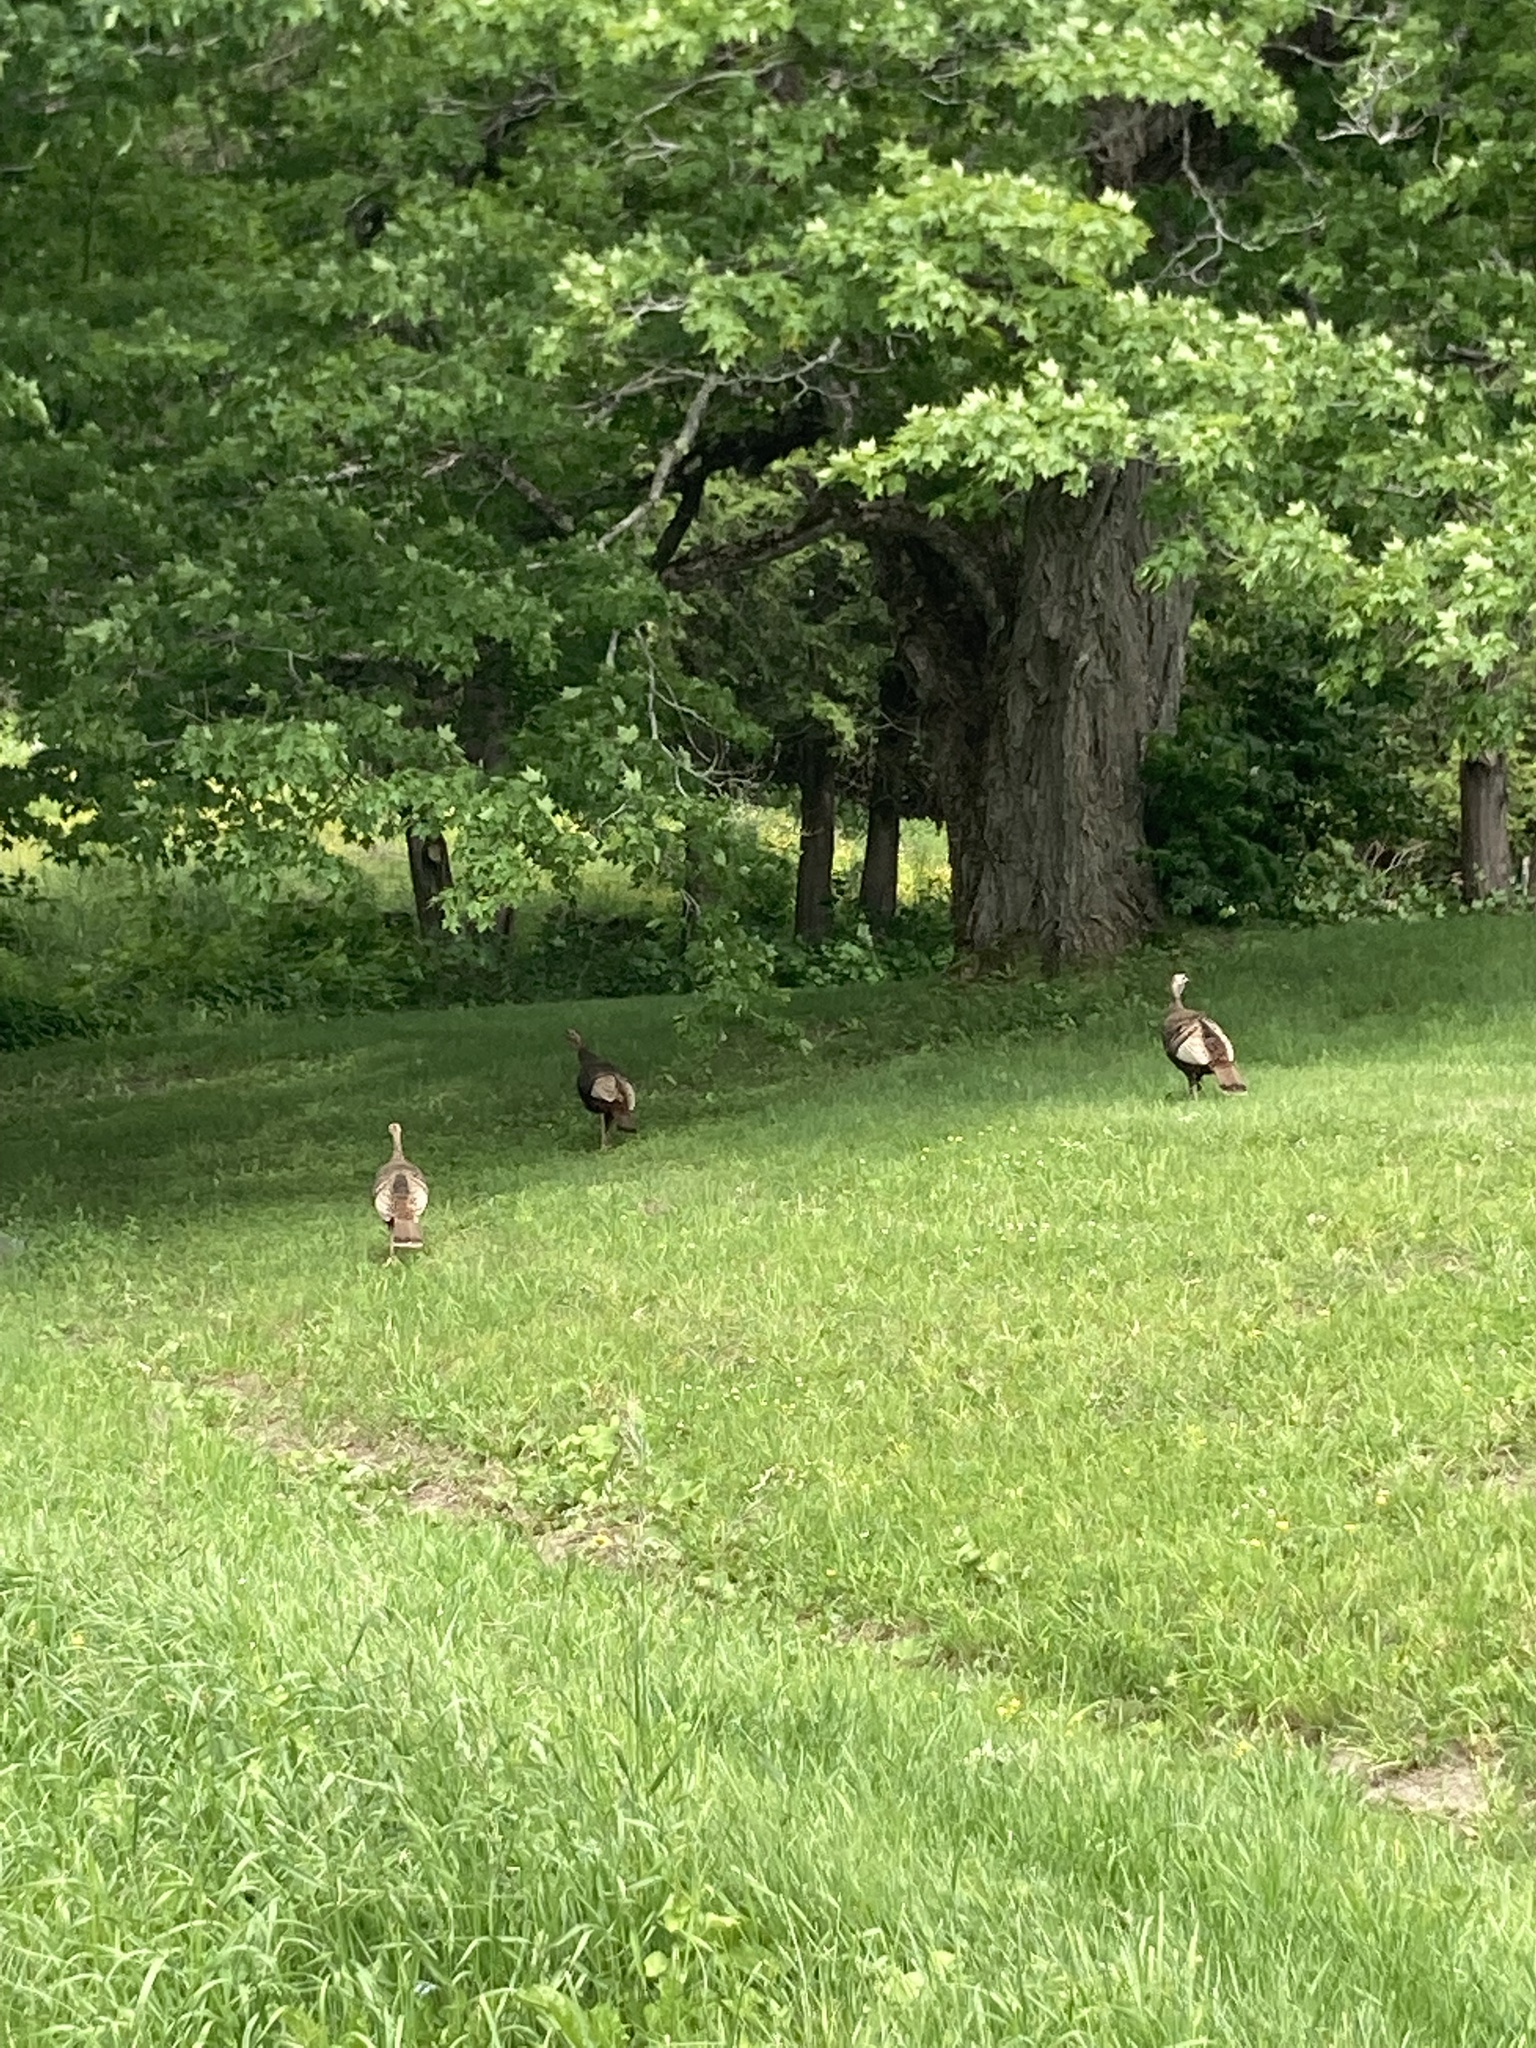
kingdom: Animalia
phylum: Chordata
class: Aves
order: Galliformes
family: Phasianidae
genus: Meleagris
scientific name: Meleagris gallopavo
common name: Wild turkey
